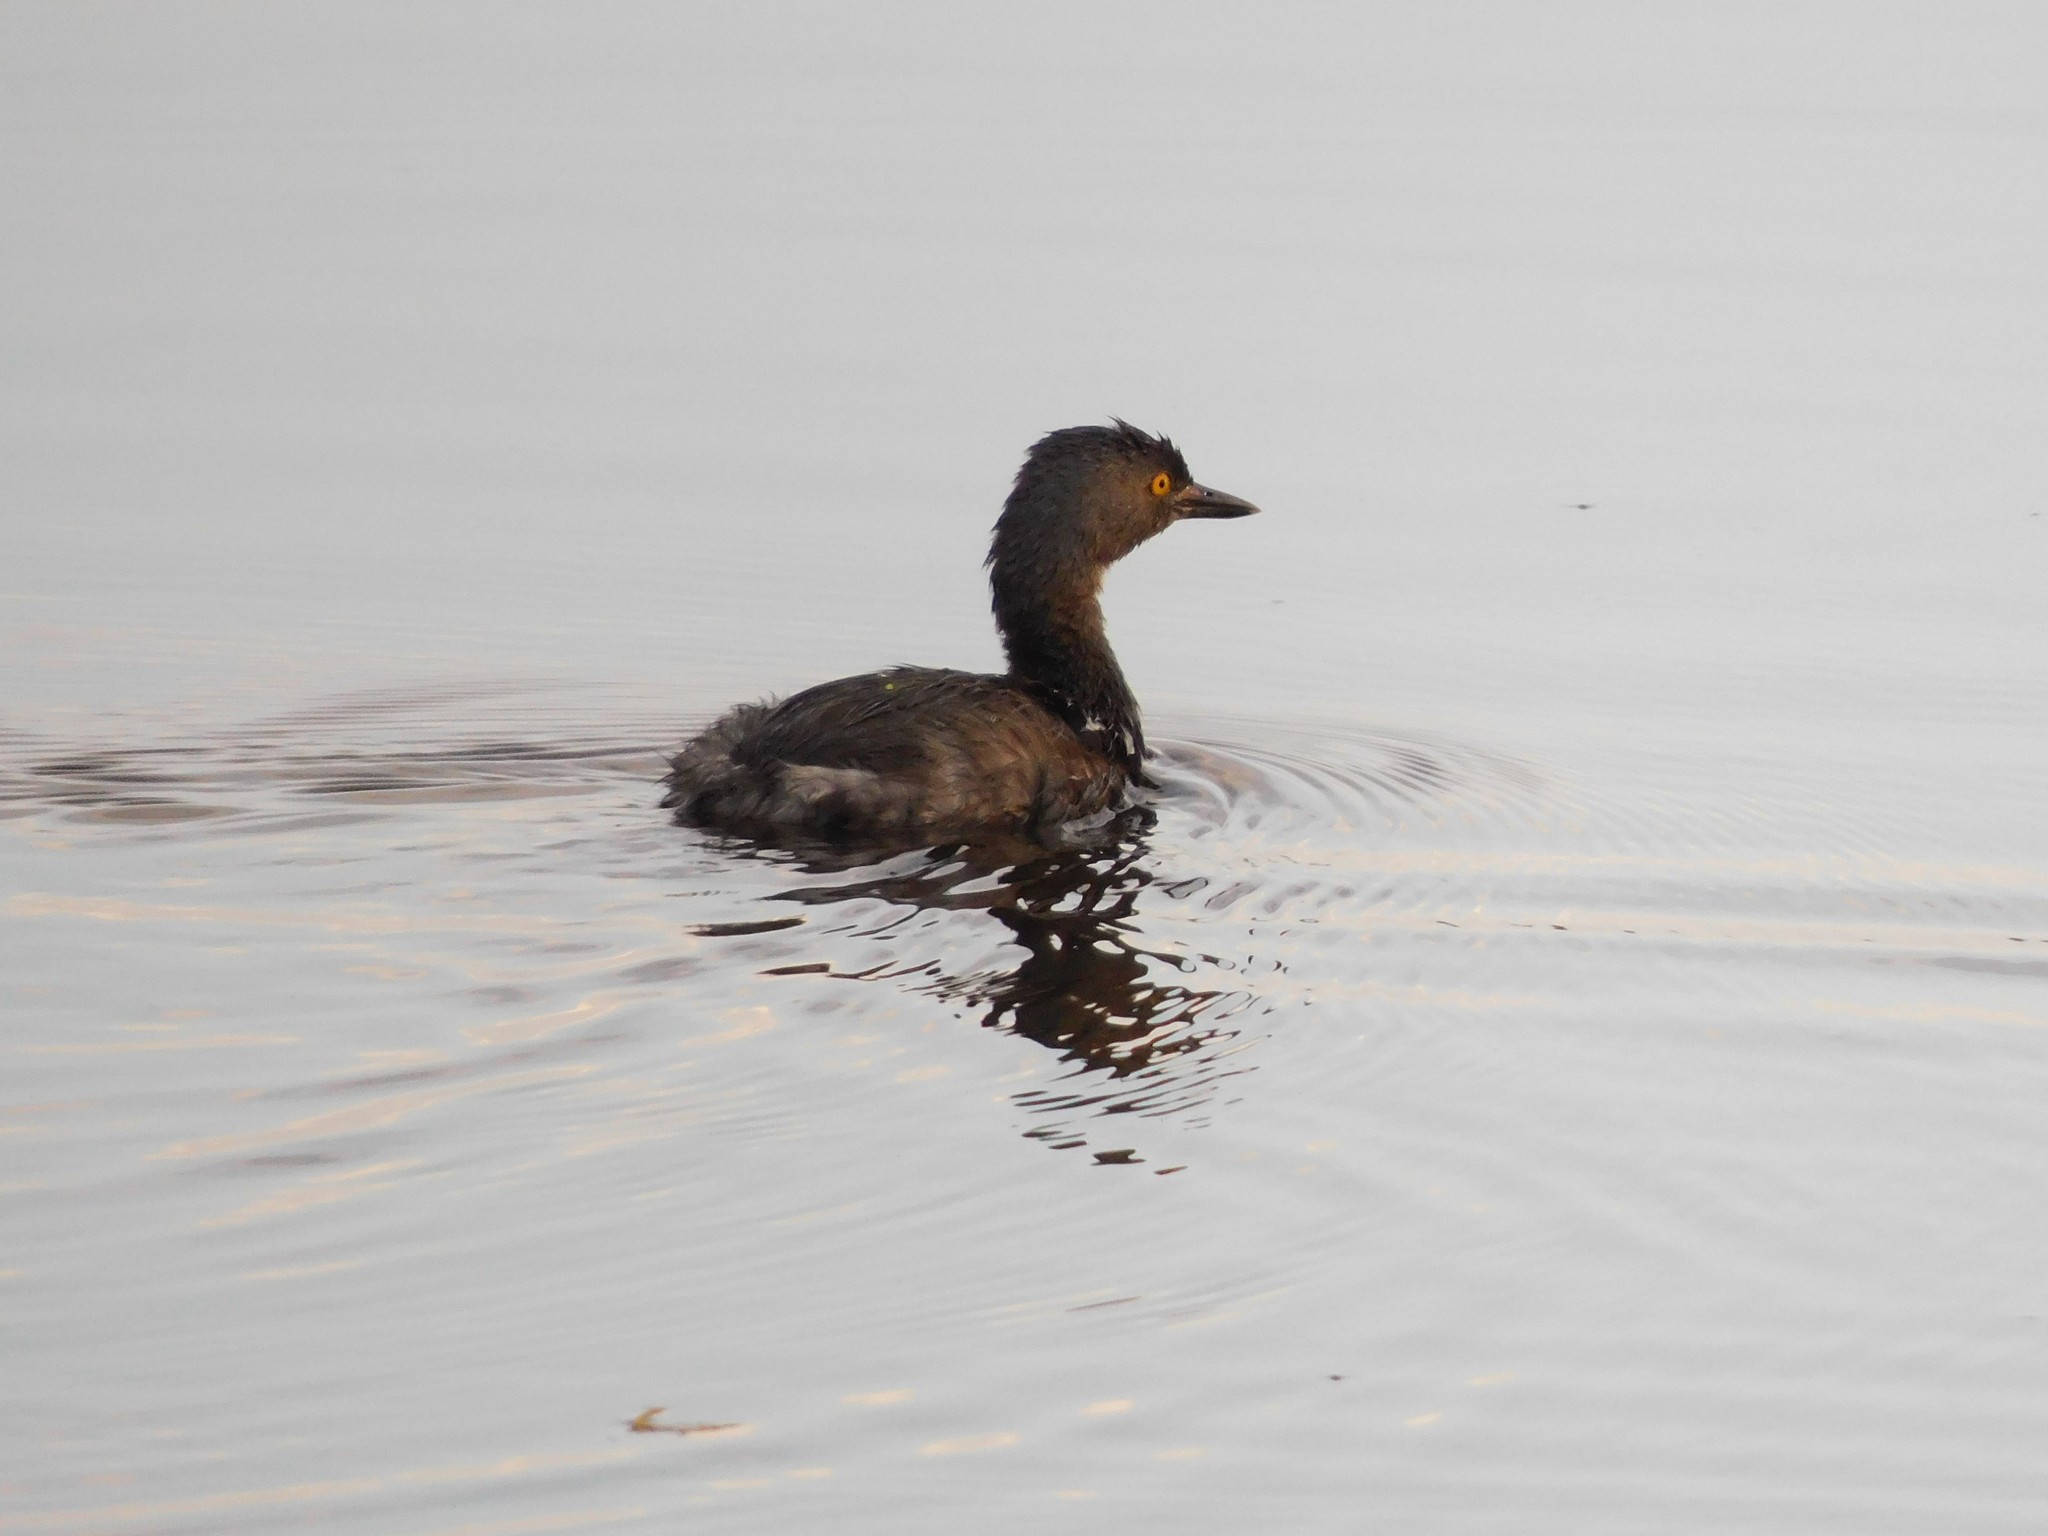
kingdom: Animalia
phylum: Chordata
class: Aves
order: Podicipediformes
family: Podicipedidae
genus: Tachybaptus
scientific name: Tachybaptus dominicus
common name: Least grebe
